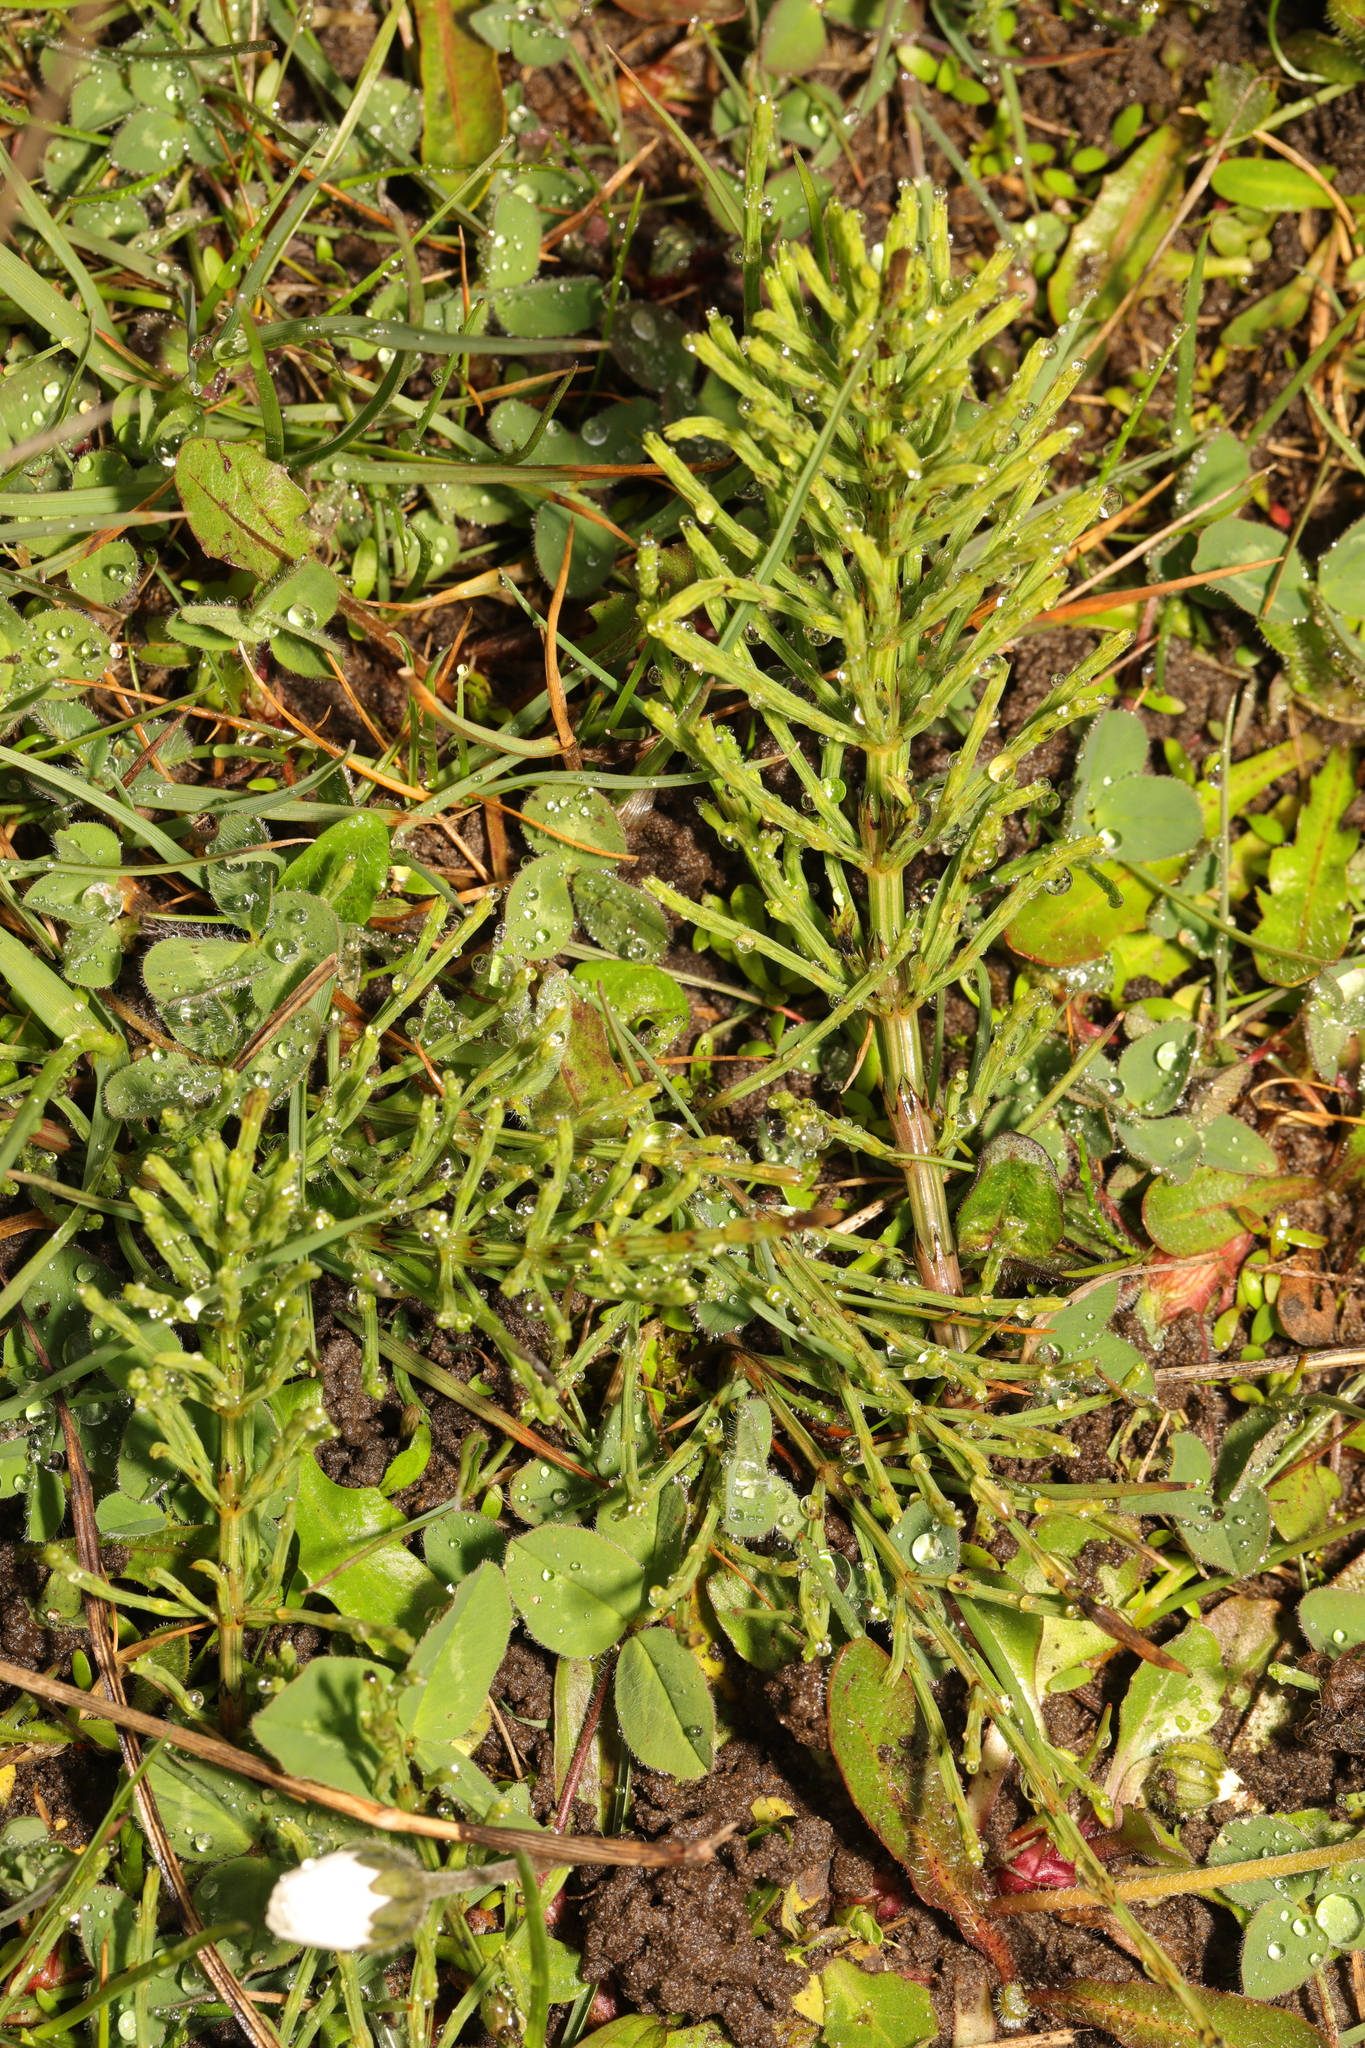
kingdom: Plantae
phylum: Tracheophyta
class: Polypodiopsida
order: Equisetales
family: Equisetaceae
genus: Equisetum
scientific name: Equisetum arvense
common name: Field horsetail
